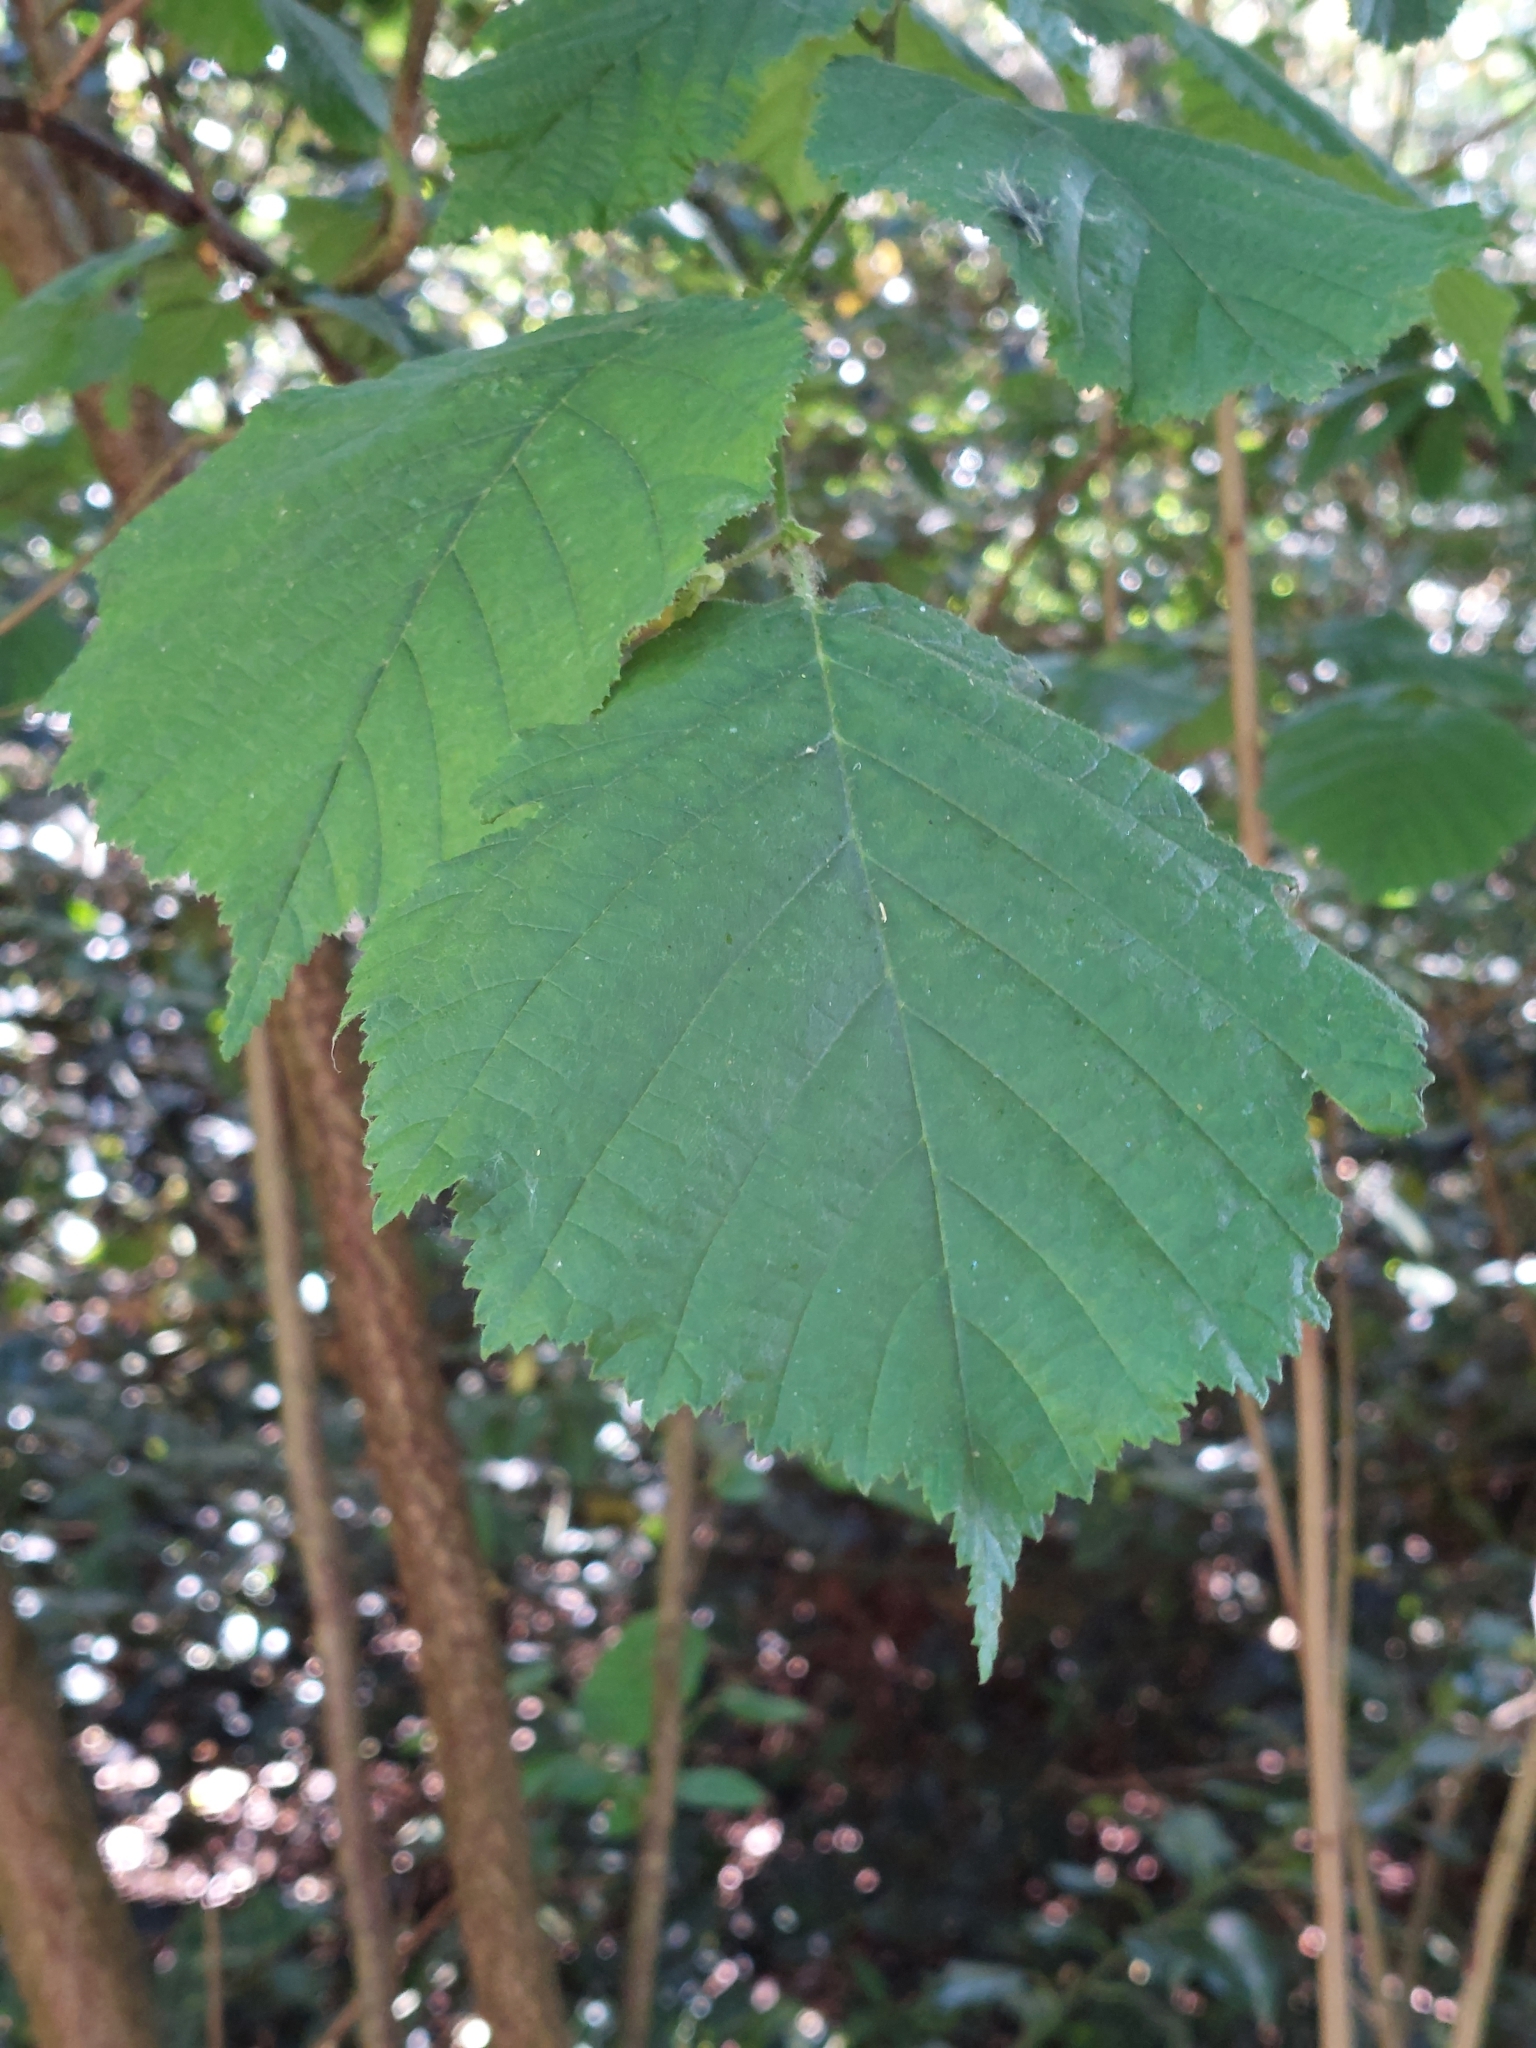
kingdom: Plantae
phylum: Tracheophyta
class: Magnoliopsida
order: Fagales
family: Betulaceae
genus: Corylus
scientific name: Corylus avellana
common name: European hazel
